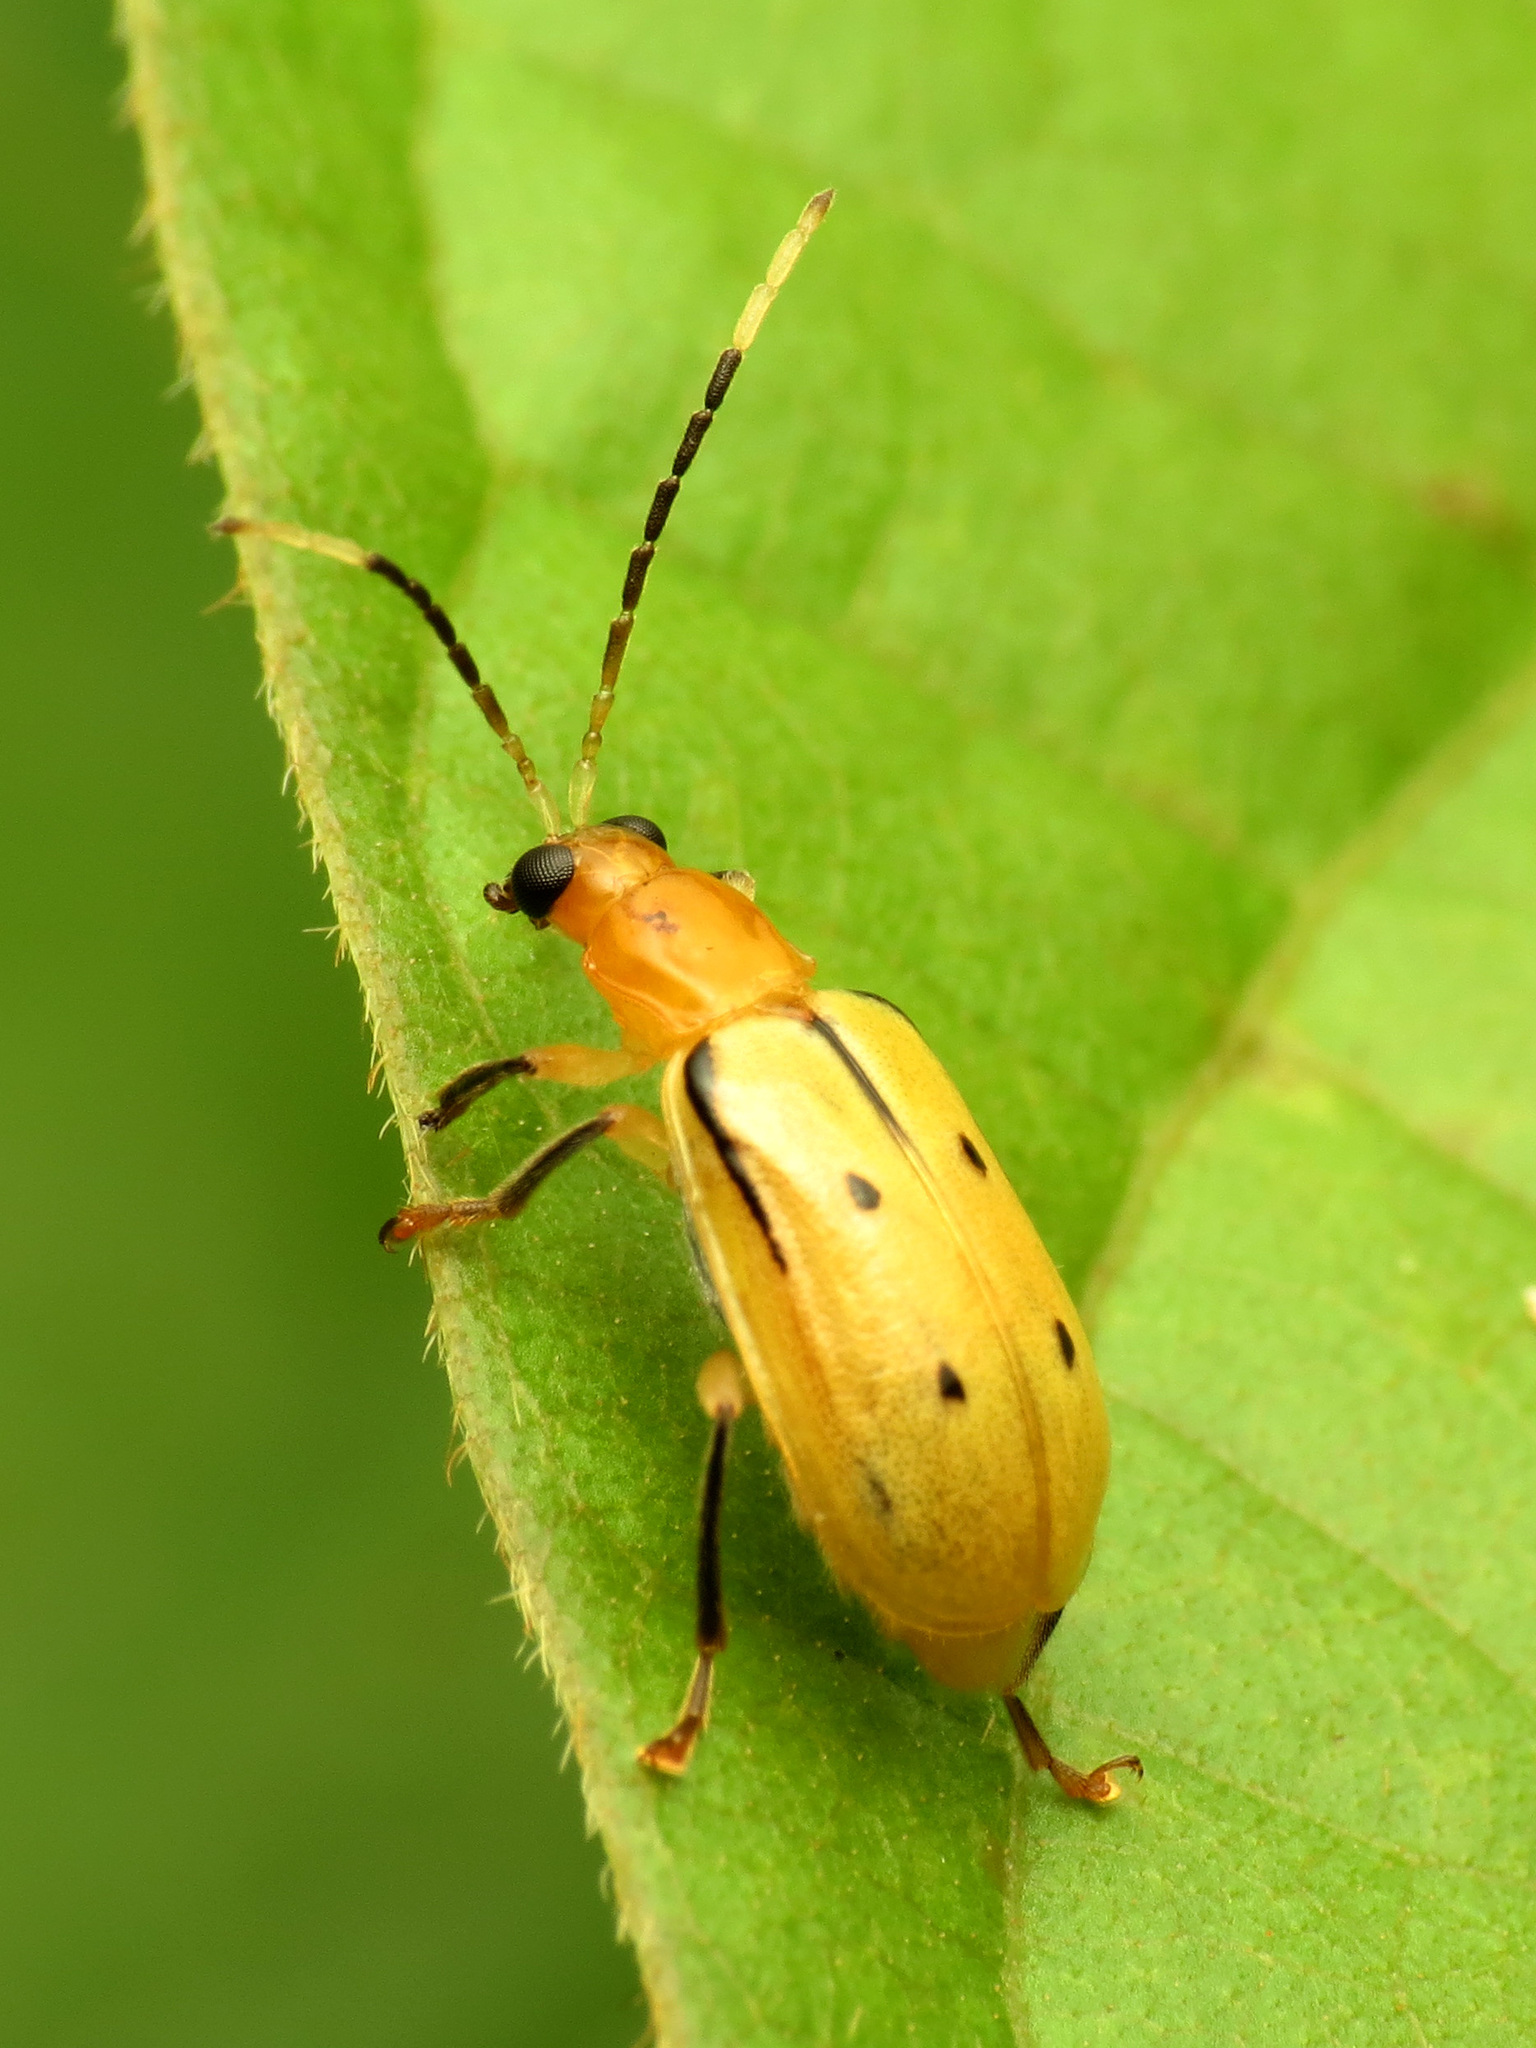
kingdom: Animalia
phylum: Arthropoda
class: Insecta
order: Coleoptera
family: Chrysomelidae
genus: Diabrotica
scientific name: Diabrotica
